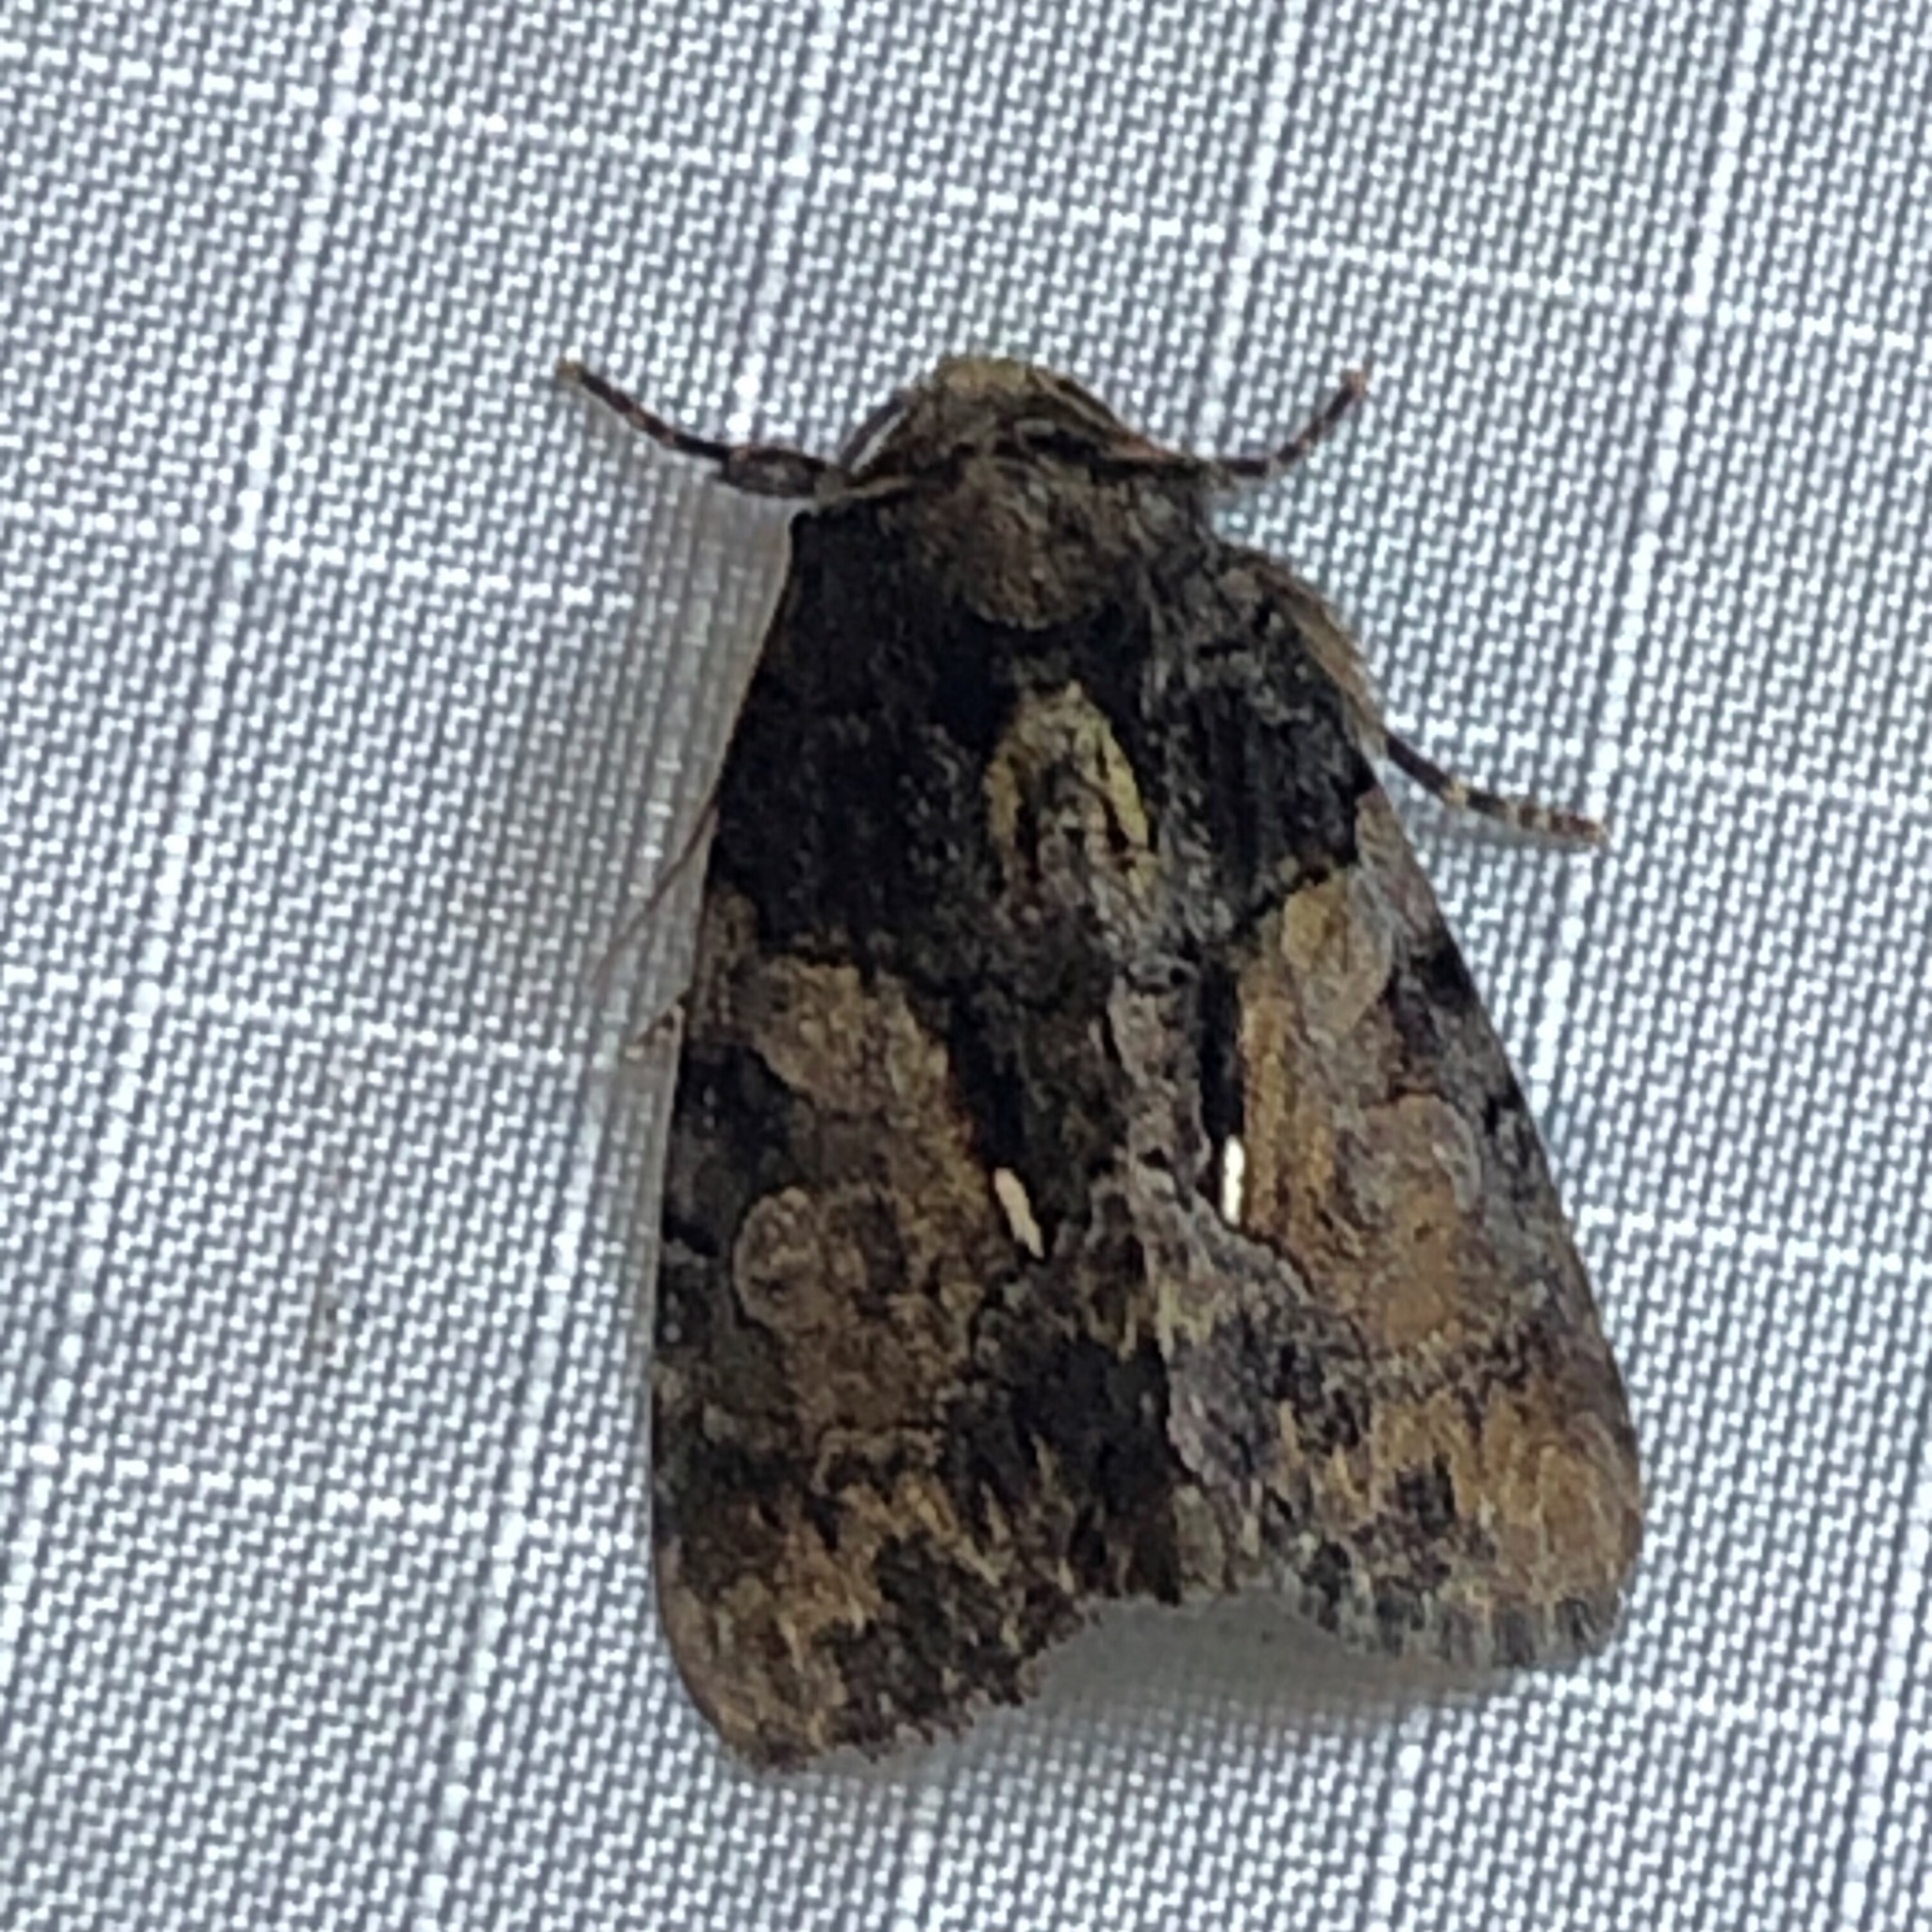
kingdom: Animalia
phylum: Arthropoda
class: Insecta
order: Lepidoptera
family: Noctuidae
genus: Chytonix
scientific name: Chytonix palliatricula
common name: Cloaked marvel
